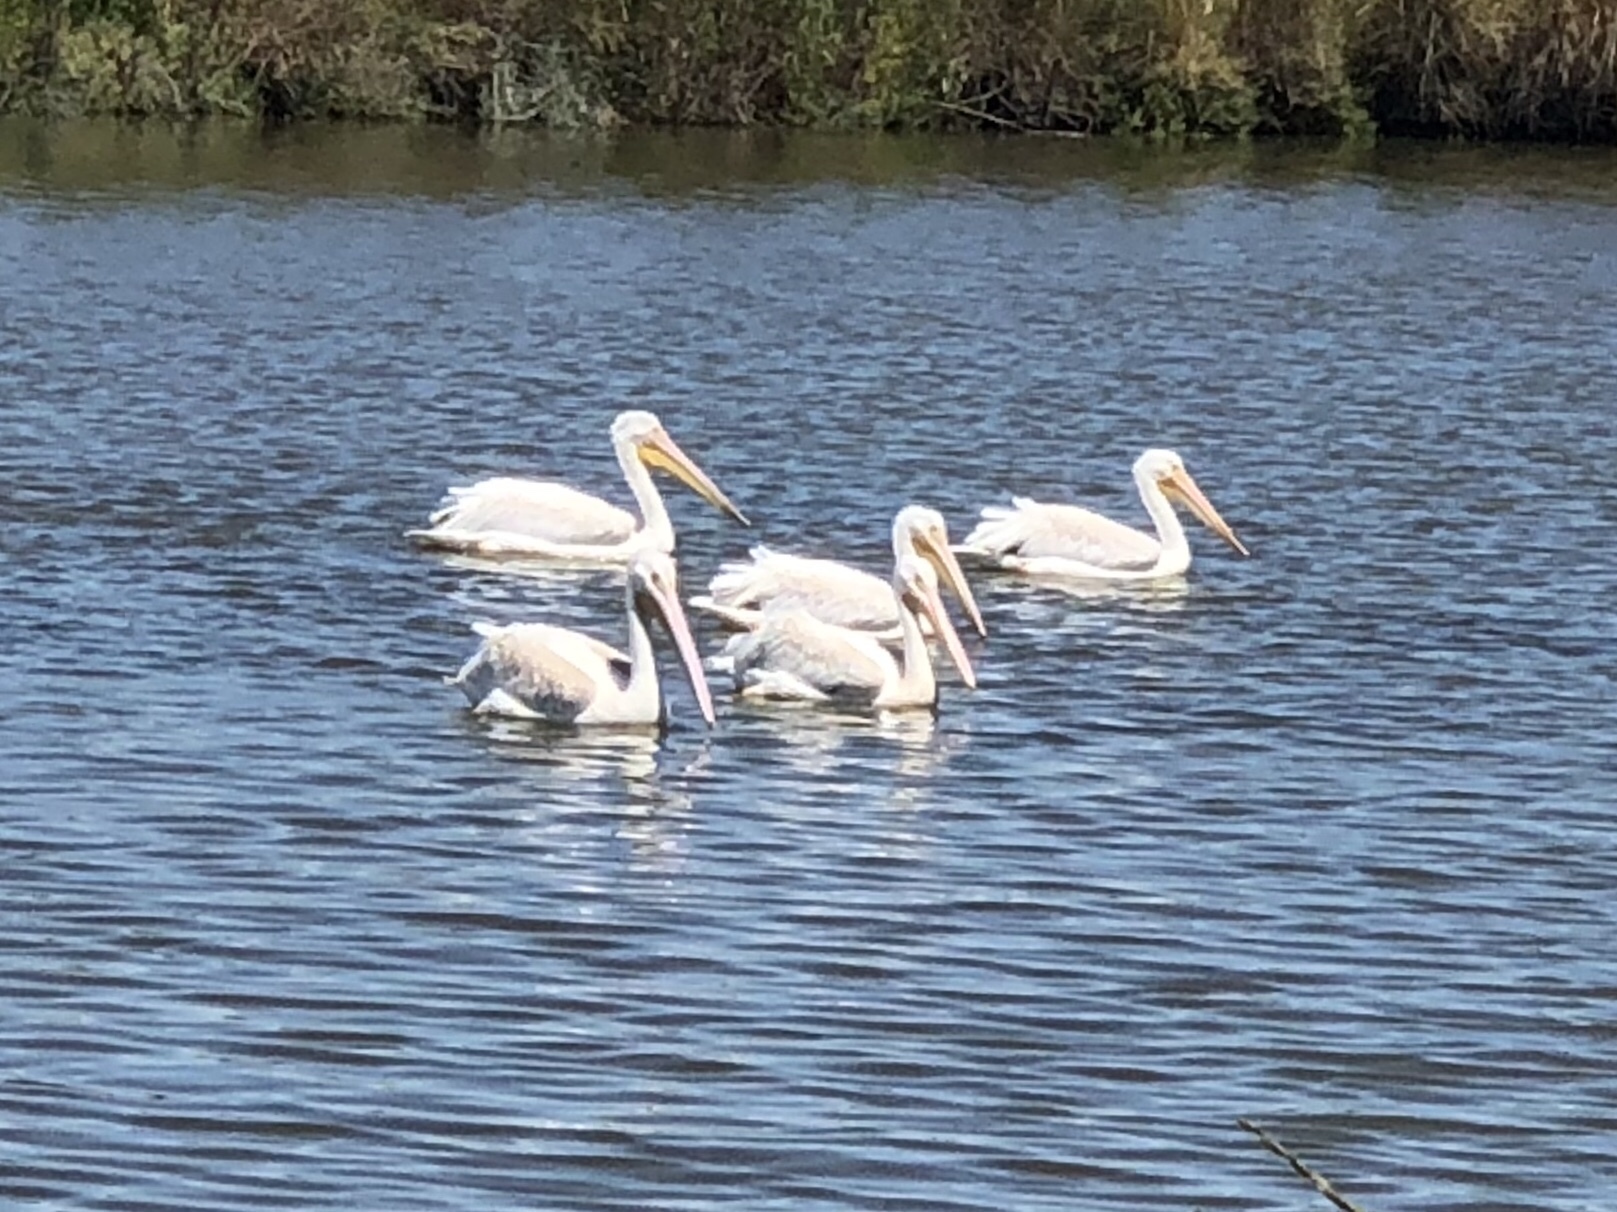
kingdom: Animalia
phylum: Chordata
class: Aves
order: Pelecaniformes
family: Pelecanidae
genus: Pelecanus
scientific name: Pelecanus erythrorhynchos
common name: American white pelican
